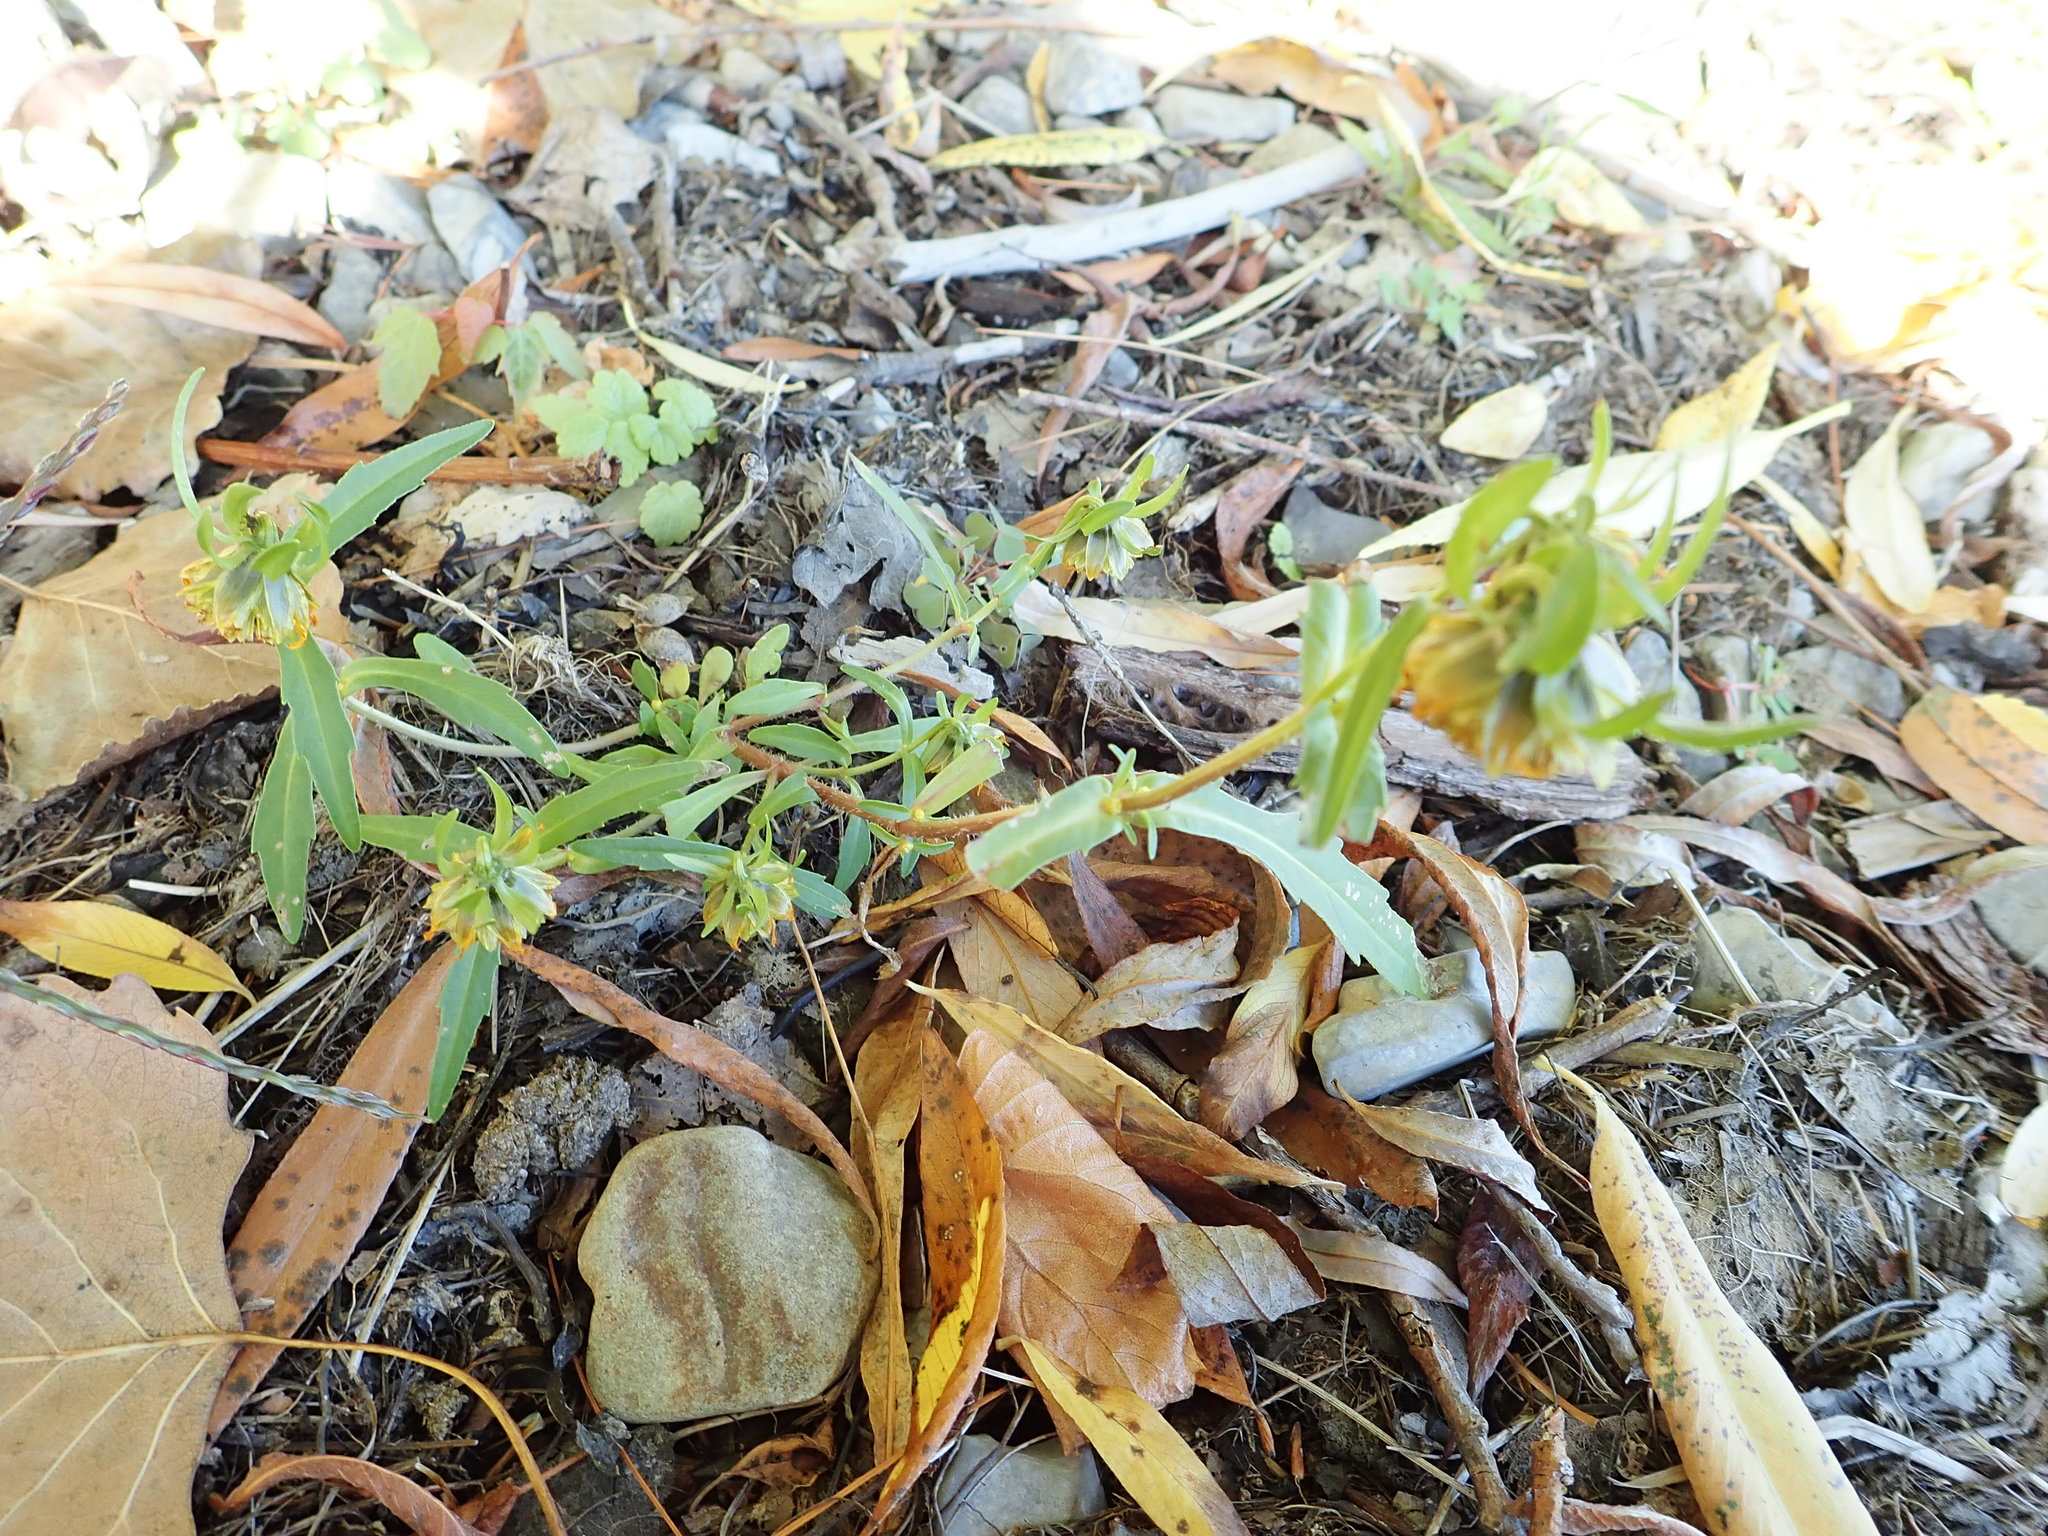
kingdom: Plantae
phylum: Tracheophyta
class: Magnoliopsida
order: Asterales
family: Asteraceae
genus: Bidens
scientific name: Bidens cernua
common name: Nodding bur-marigold
